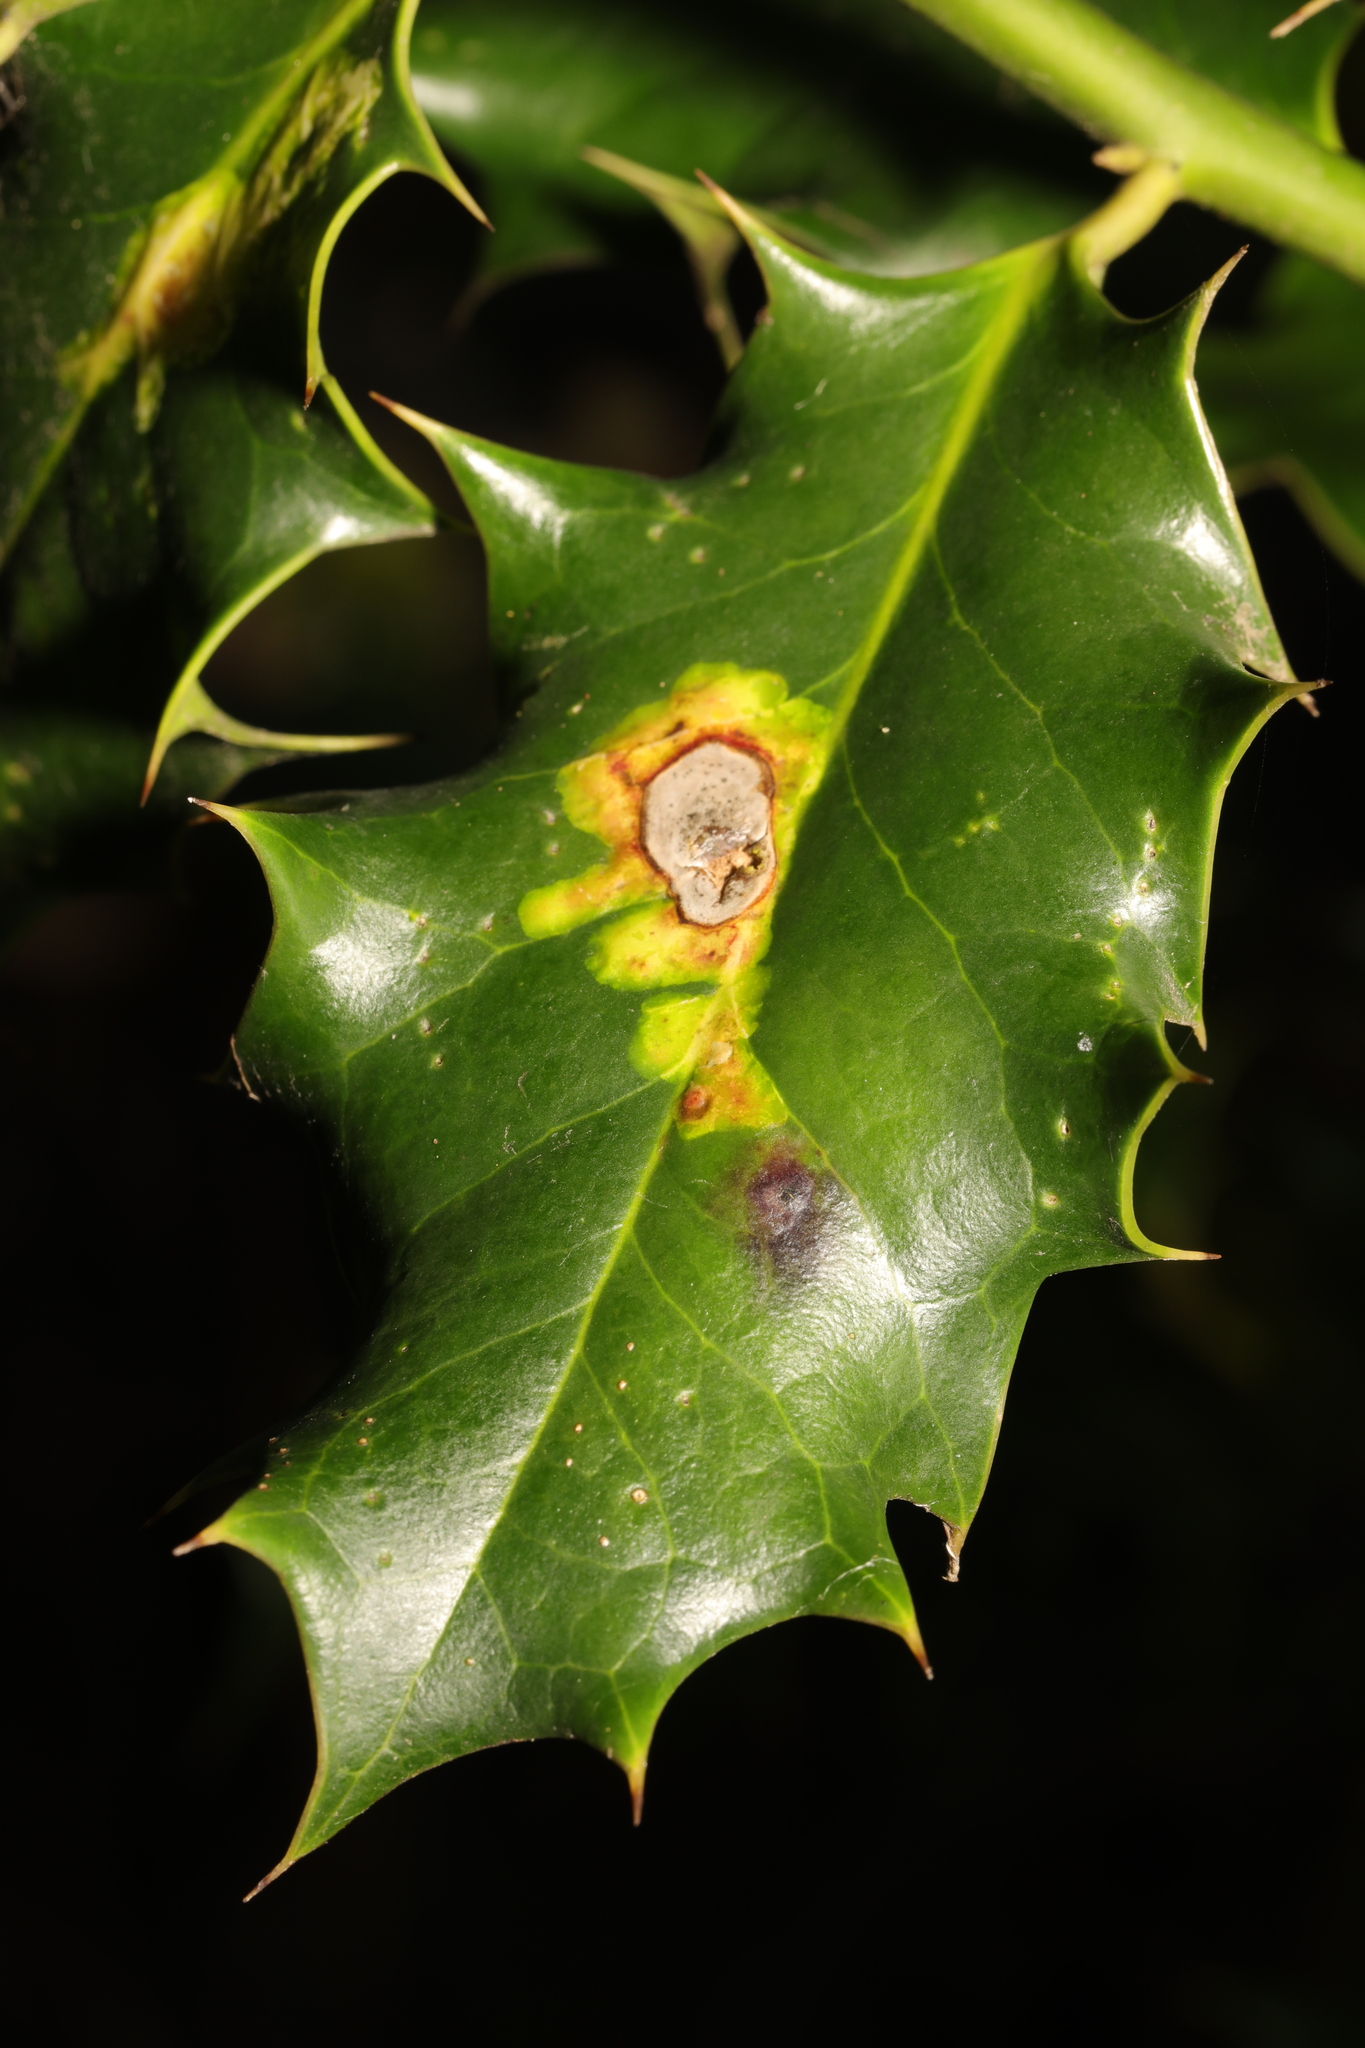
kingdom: Animalia
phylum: Arthropoda
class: Insecta
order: Diptera
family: Agromyzidae
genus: Phytomyza
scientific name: Phytomyza ilicis
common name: Holly leafminer
